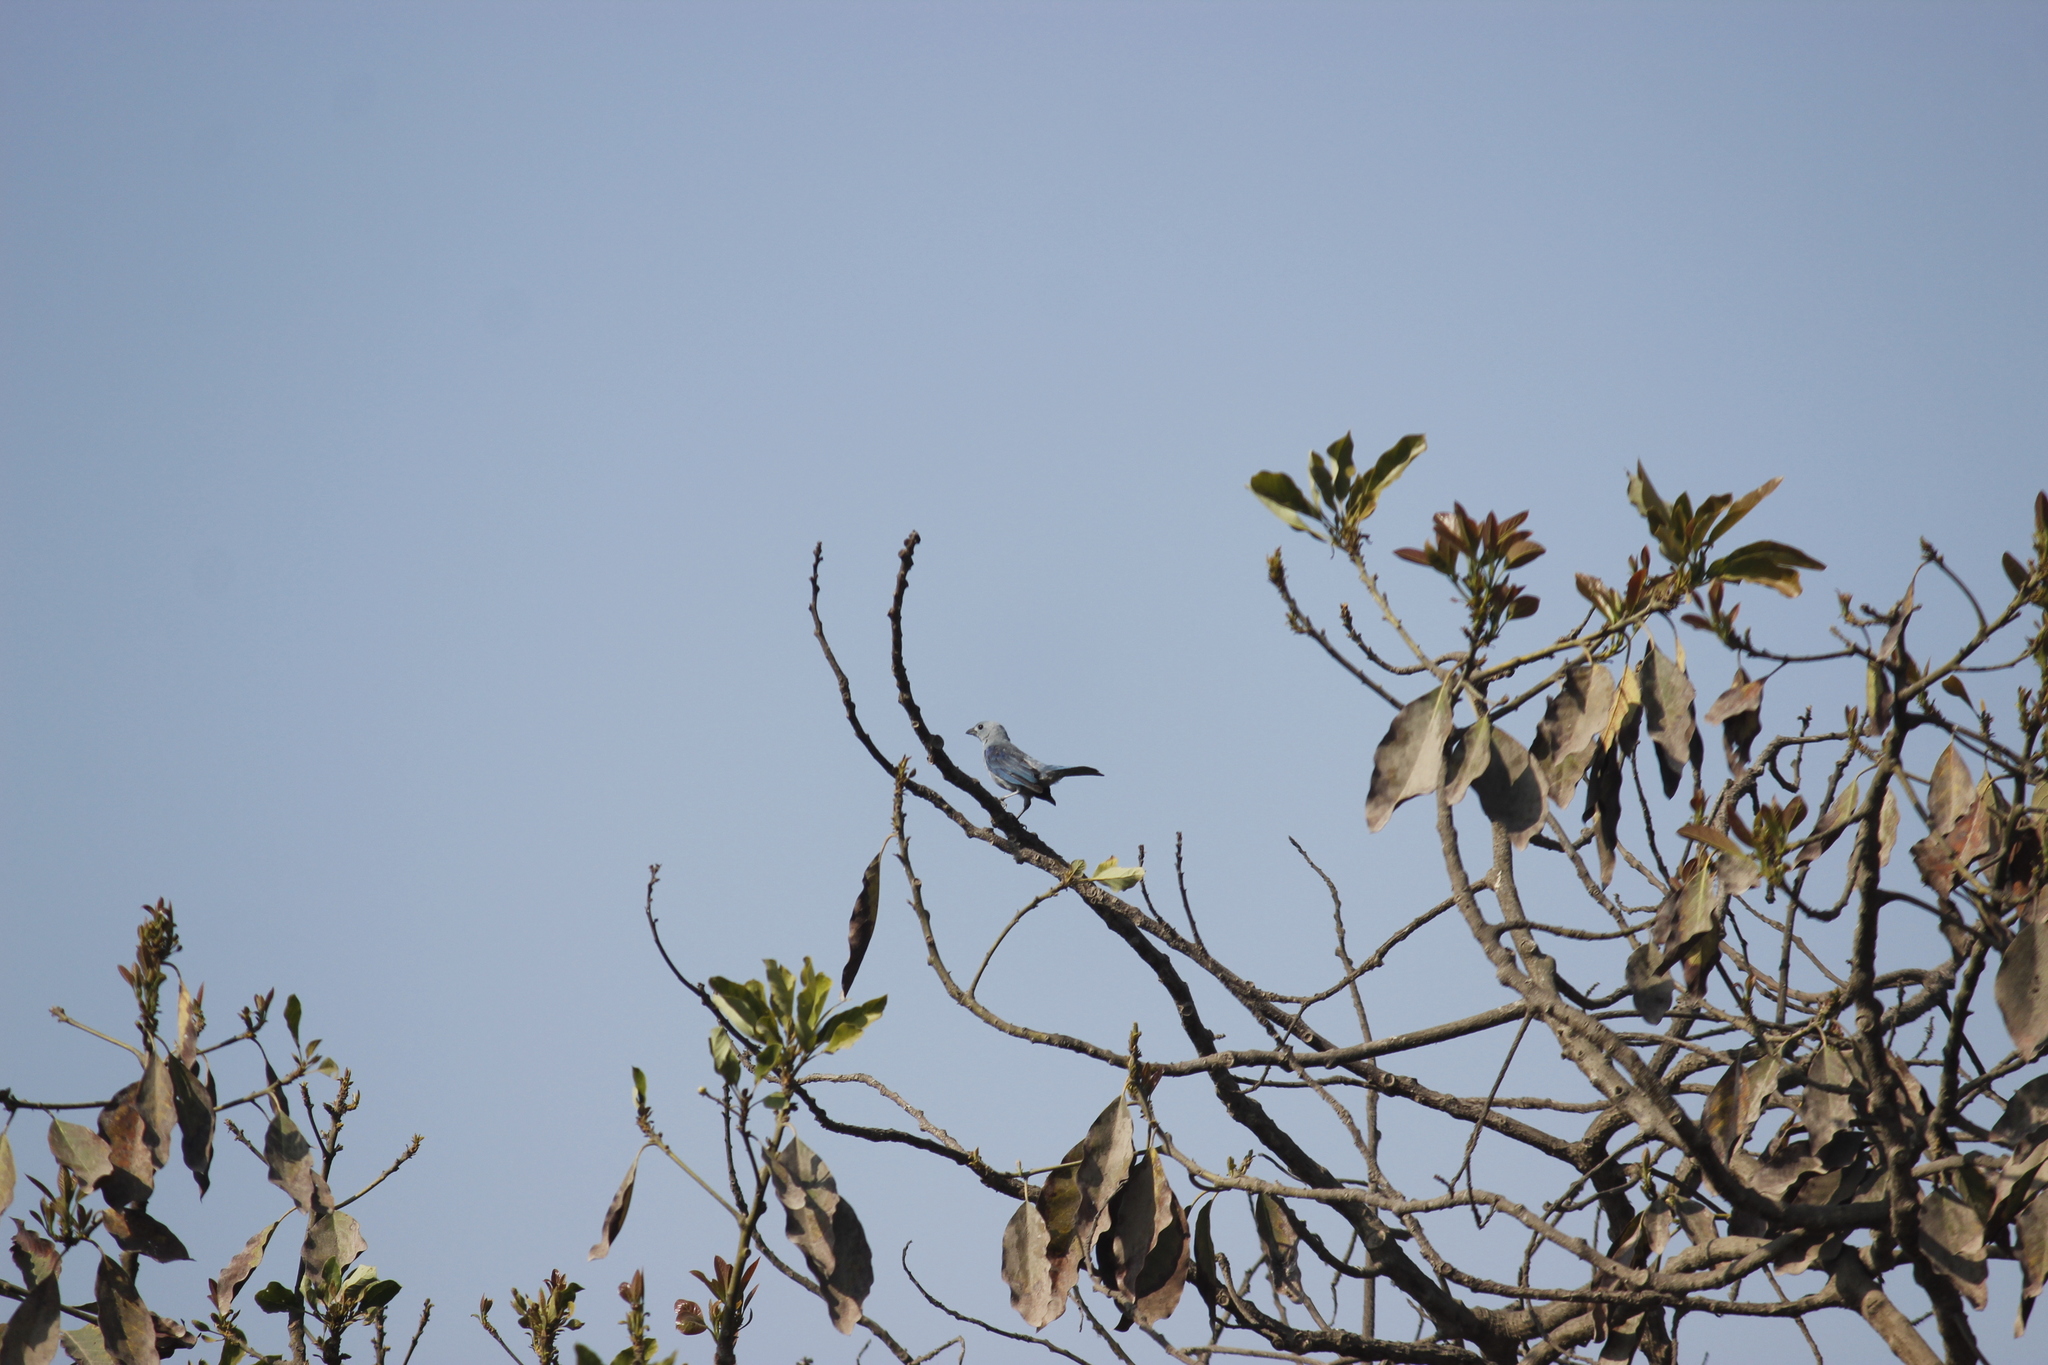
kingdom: Animalia
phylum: Chordata
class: Aves
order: Passeriformes
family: Thraupidae
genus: Thraupis
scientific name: Thraupis episcopus
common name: Blue-grey tanager
